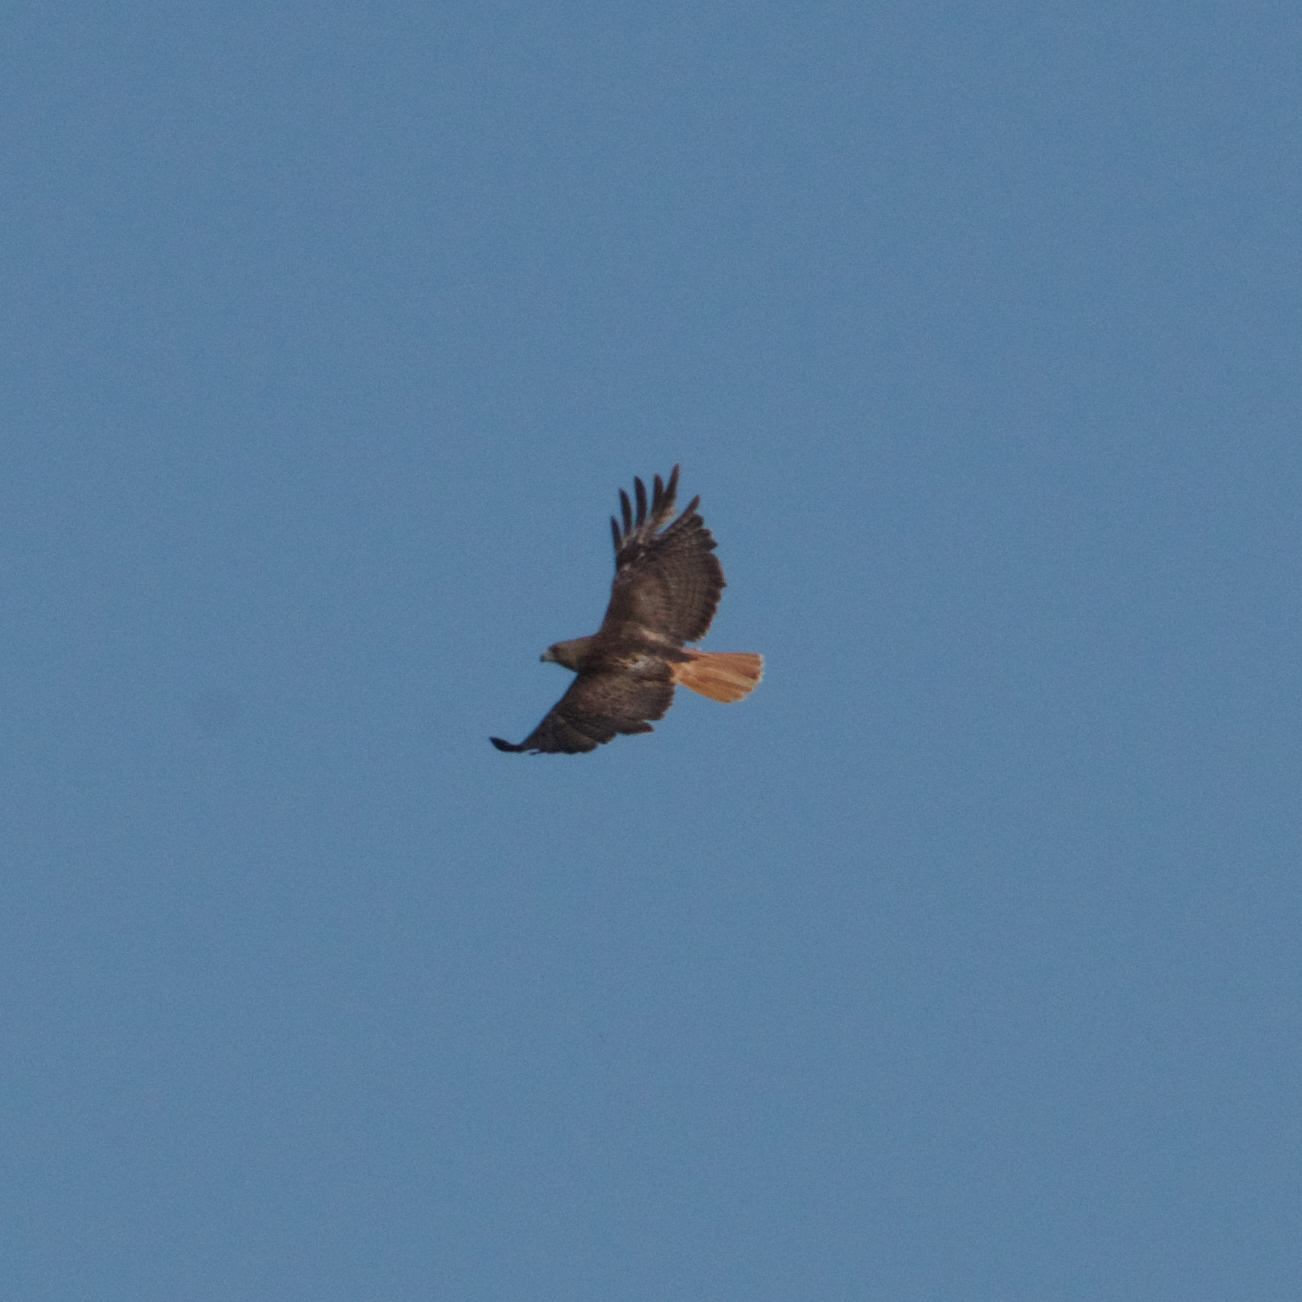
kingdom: Animalia
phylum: Chordata
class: Aves
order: Accipitriformes
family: Accipitridae
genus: Buteo
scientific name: Buteo jamaicensis
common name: Red-tailed hawk
